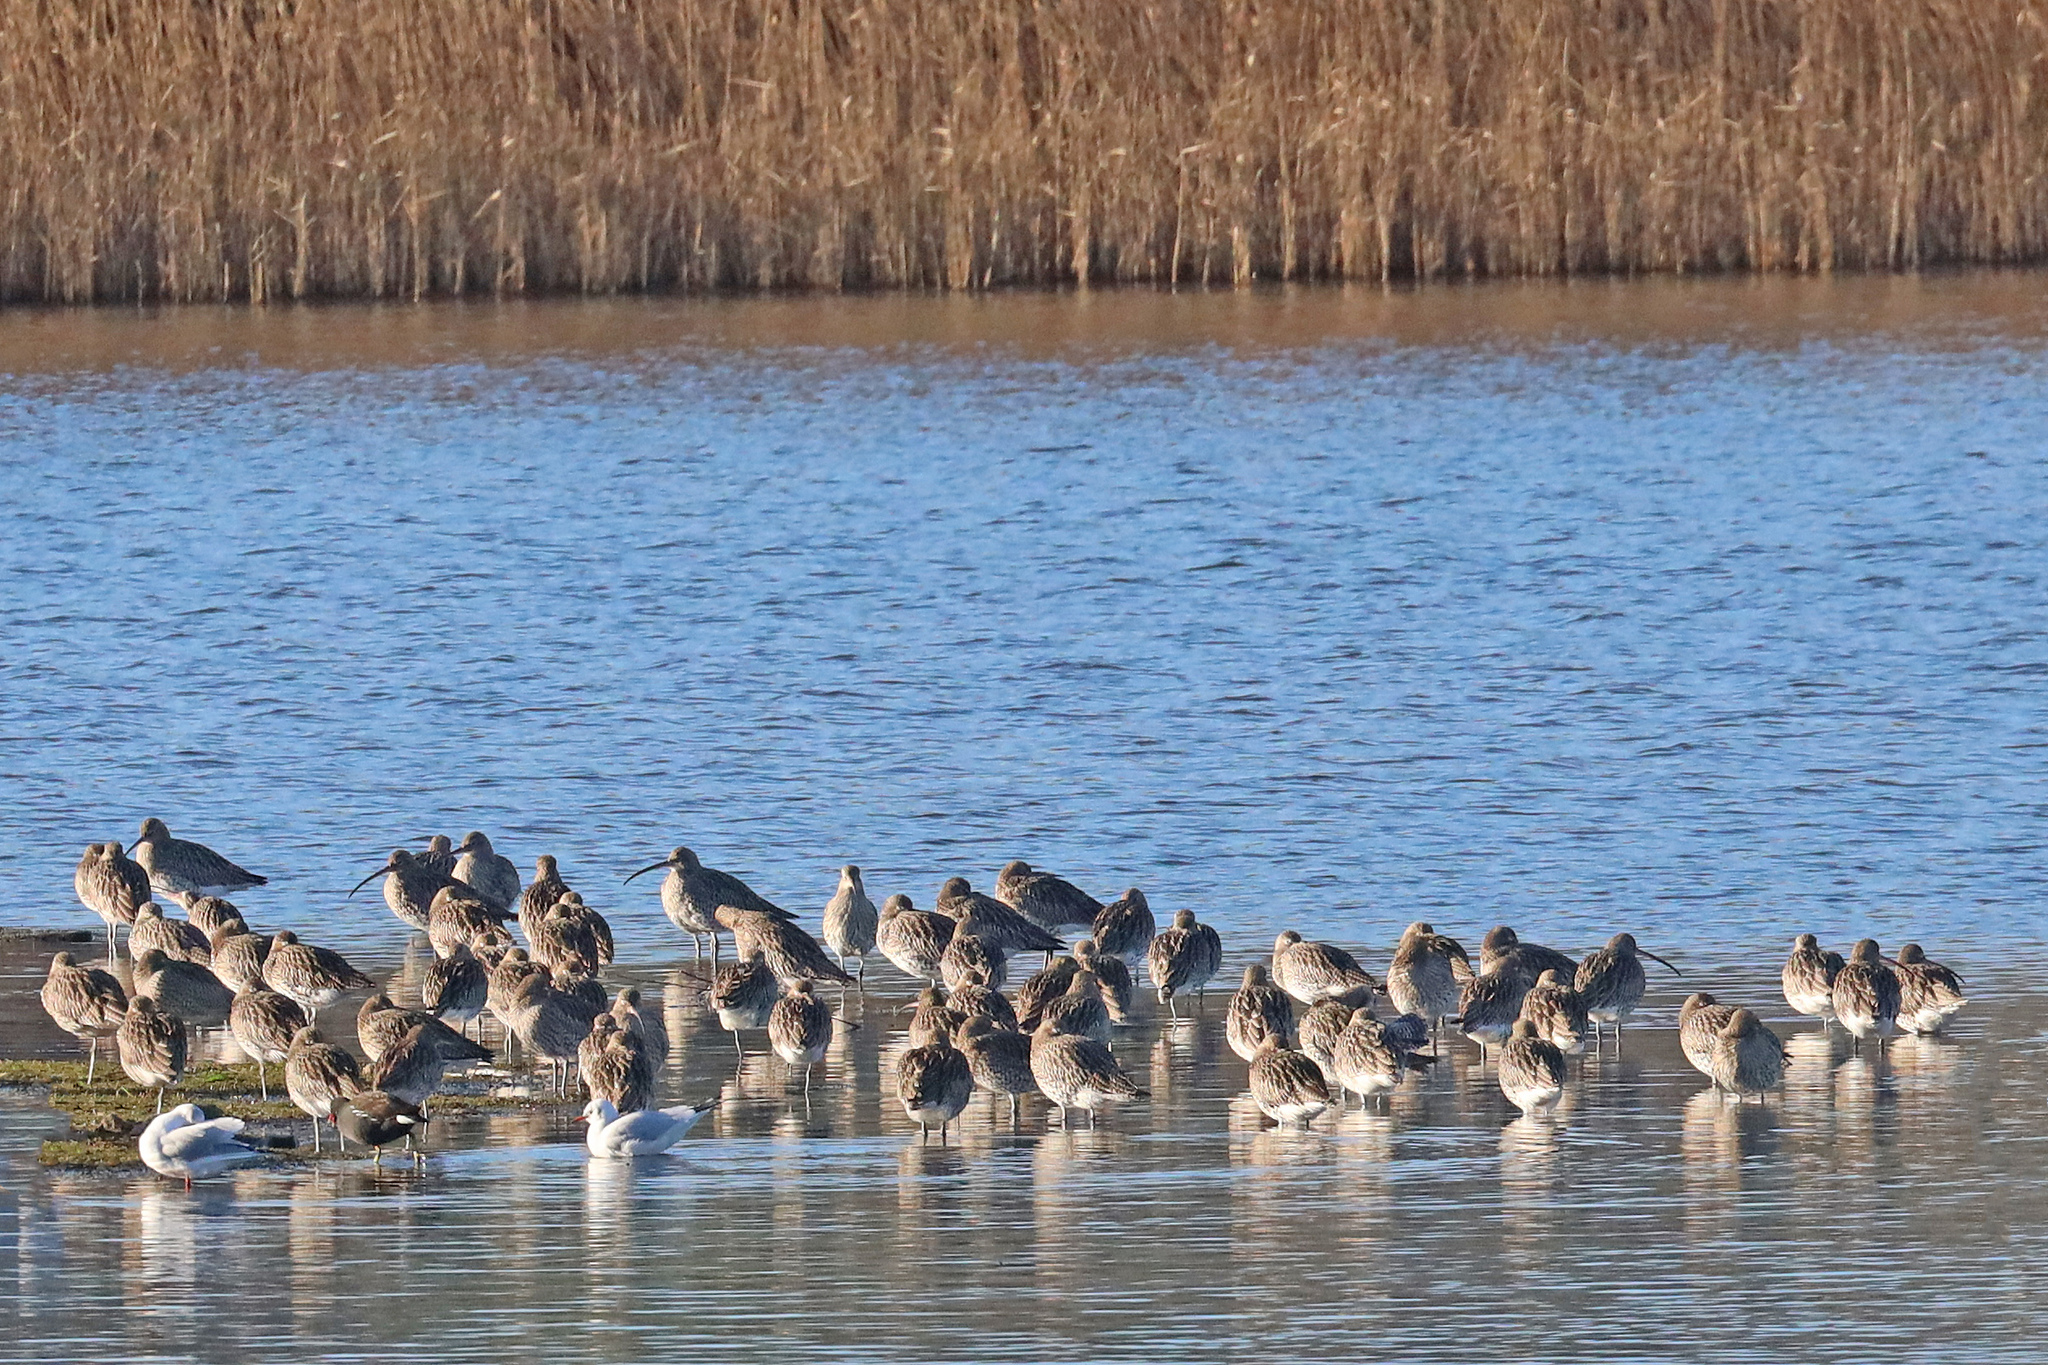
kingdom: Animalia
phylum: Chordata
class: Aves
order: Charadriiformes
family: Scolopacidae
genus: Numenius
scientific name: Numenius arquata
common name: Eurasian curlew
